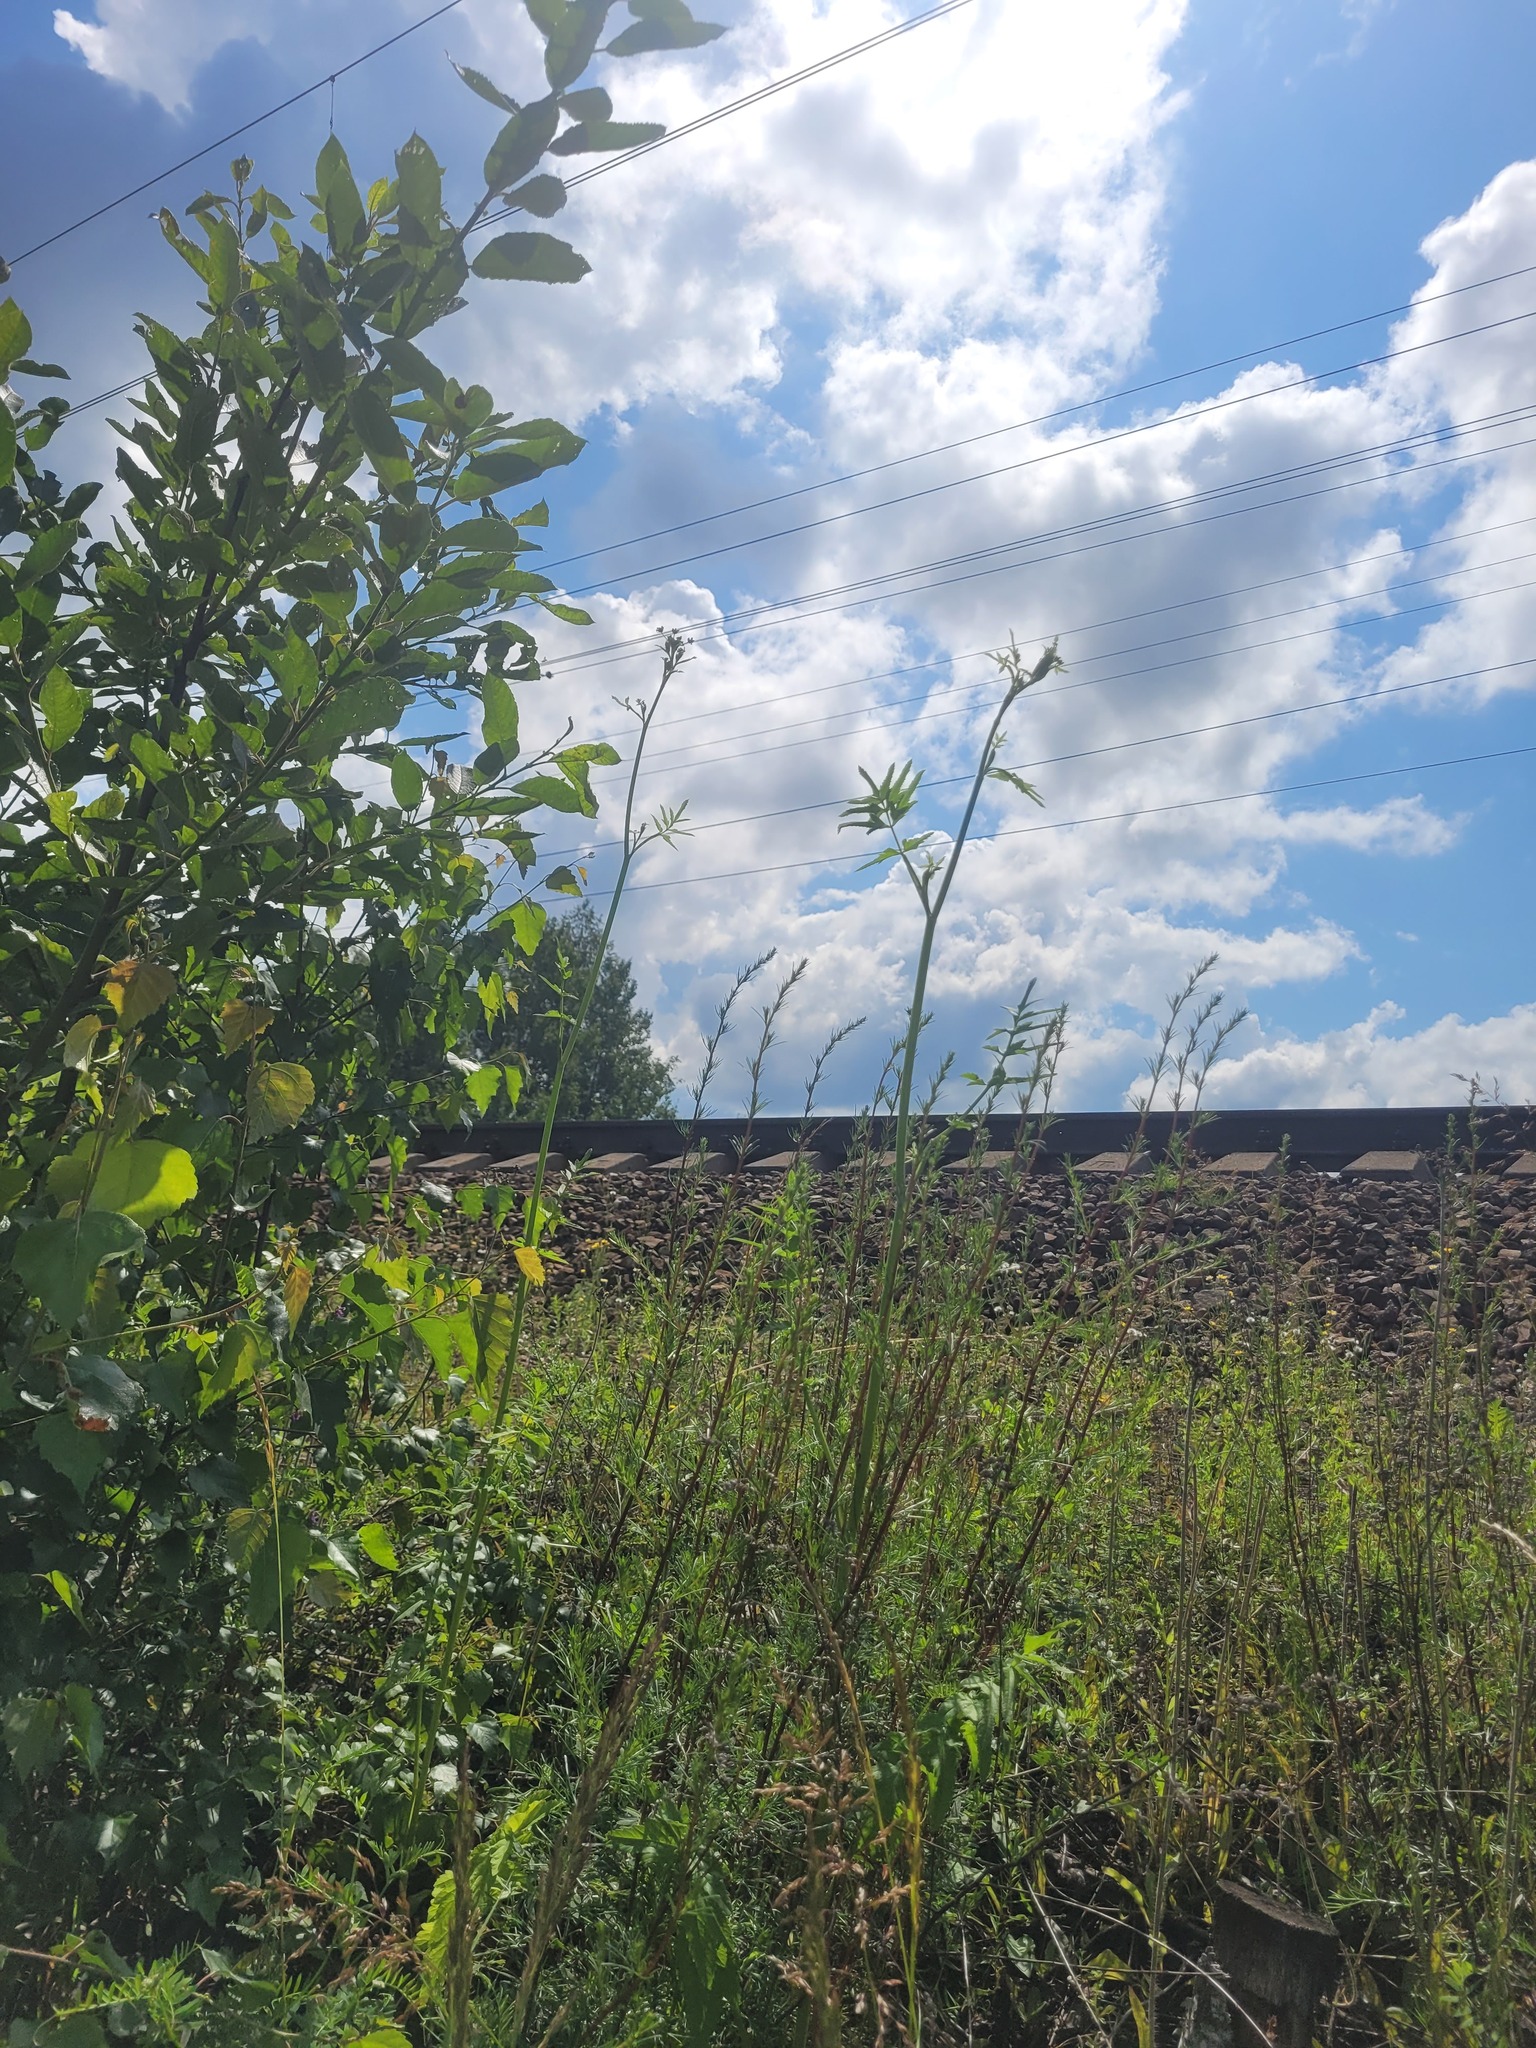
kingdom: Plantae
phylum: Tracheophyta
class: Magnoliopsida
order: Apiales
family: Apiaceae
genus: Pastinaca
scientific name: Pastinaca sativa
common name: Wild parsnip
